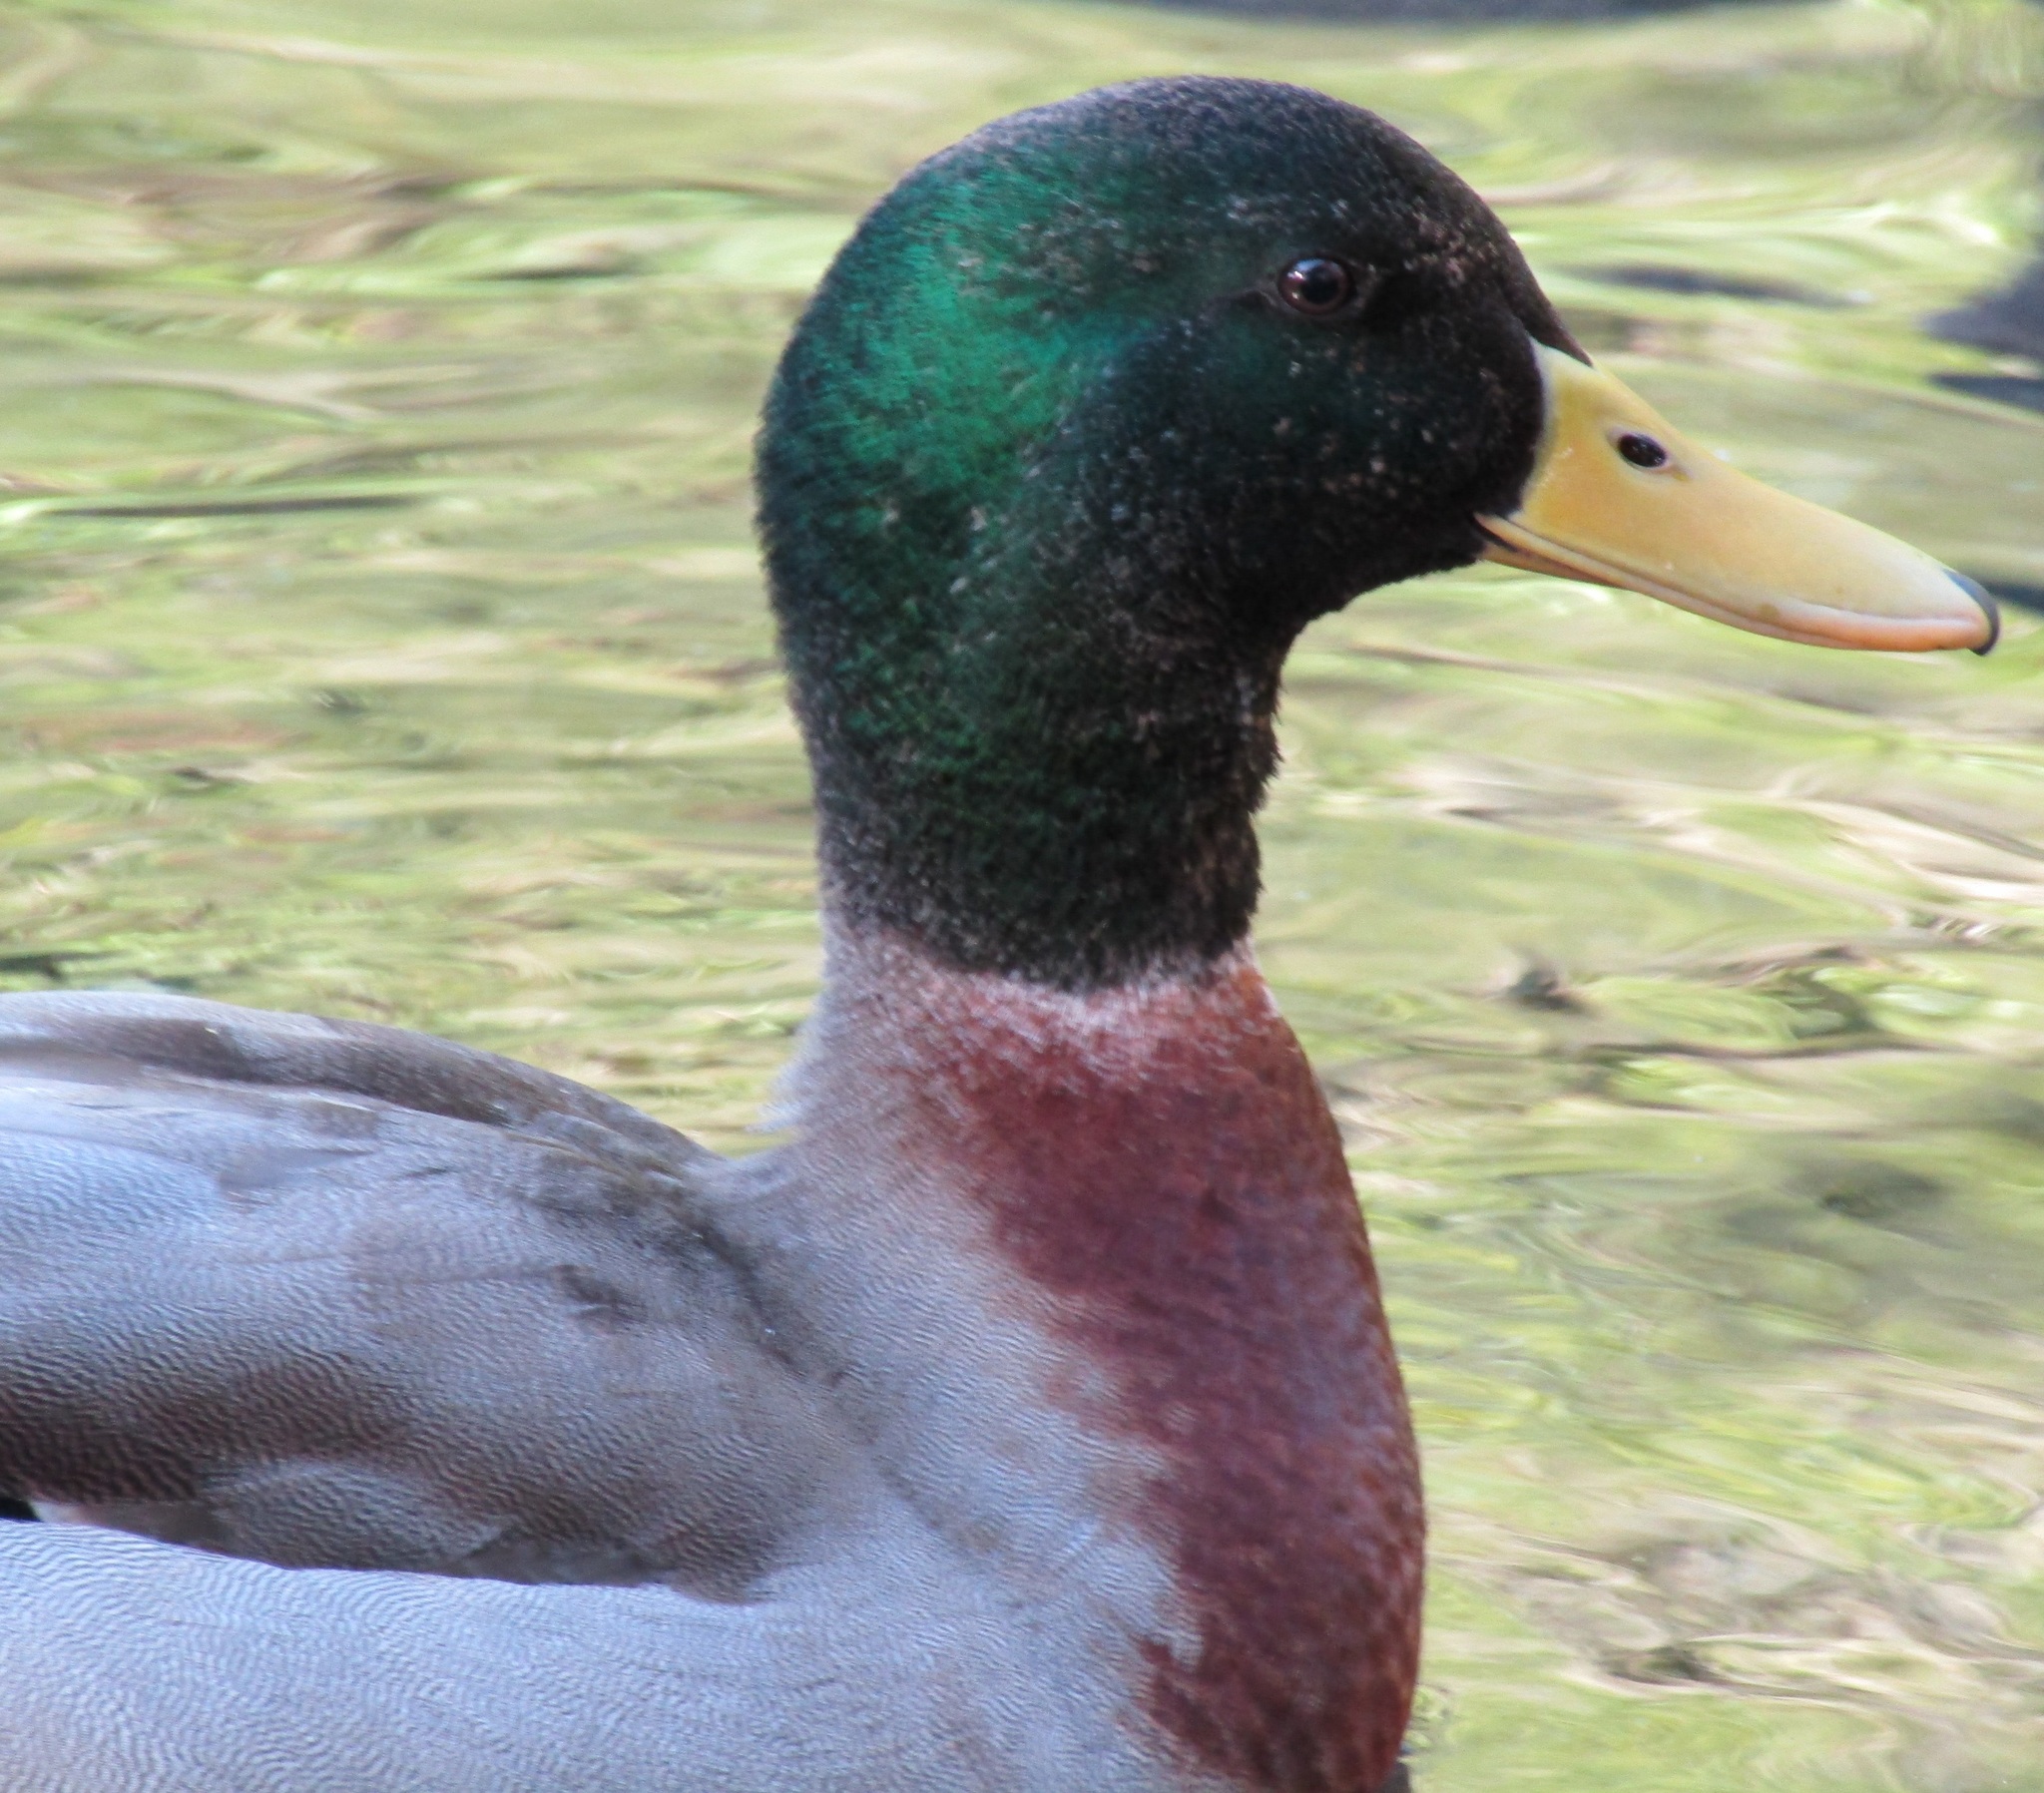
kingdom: Animalia
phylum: Chordata
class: Aves
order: Anseriformes
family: Anatidae
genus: Anas
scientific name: Anas platyrhynchos
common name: Mallard
